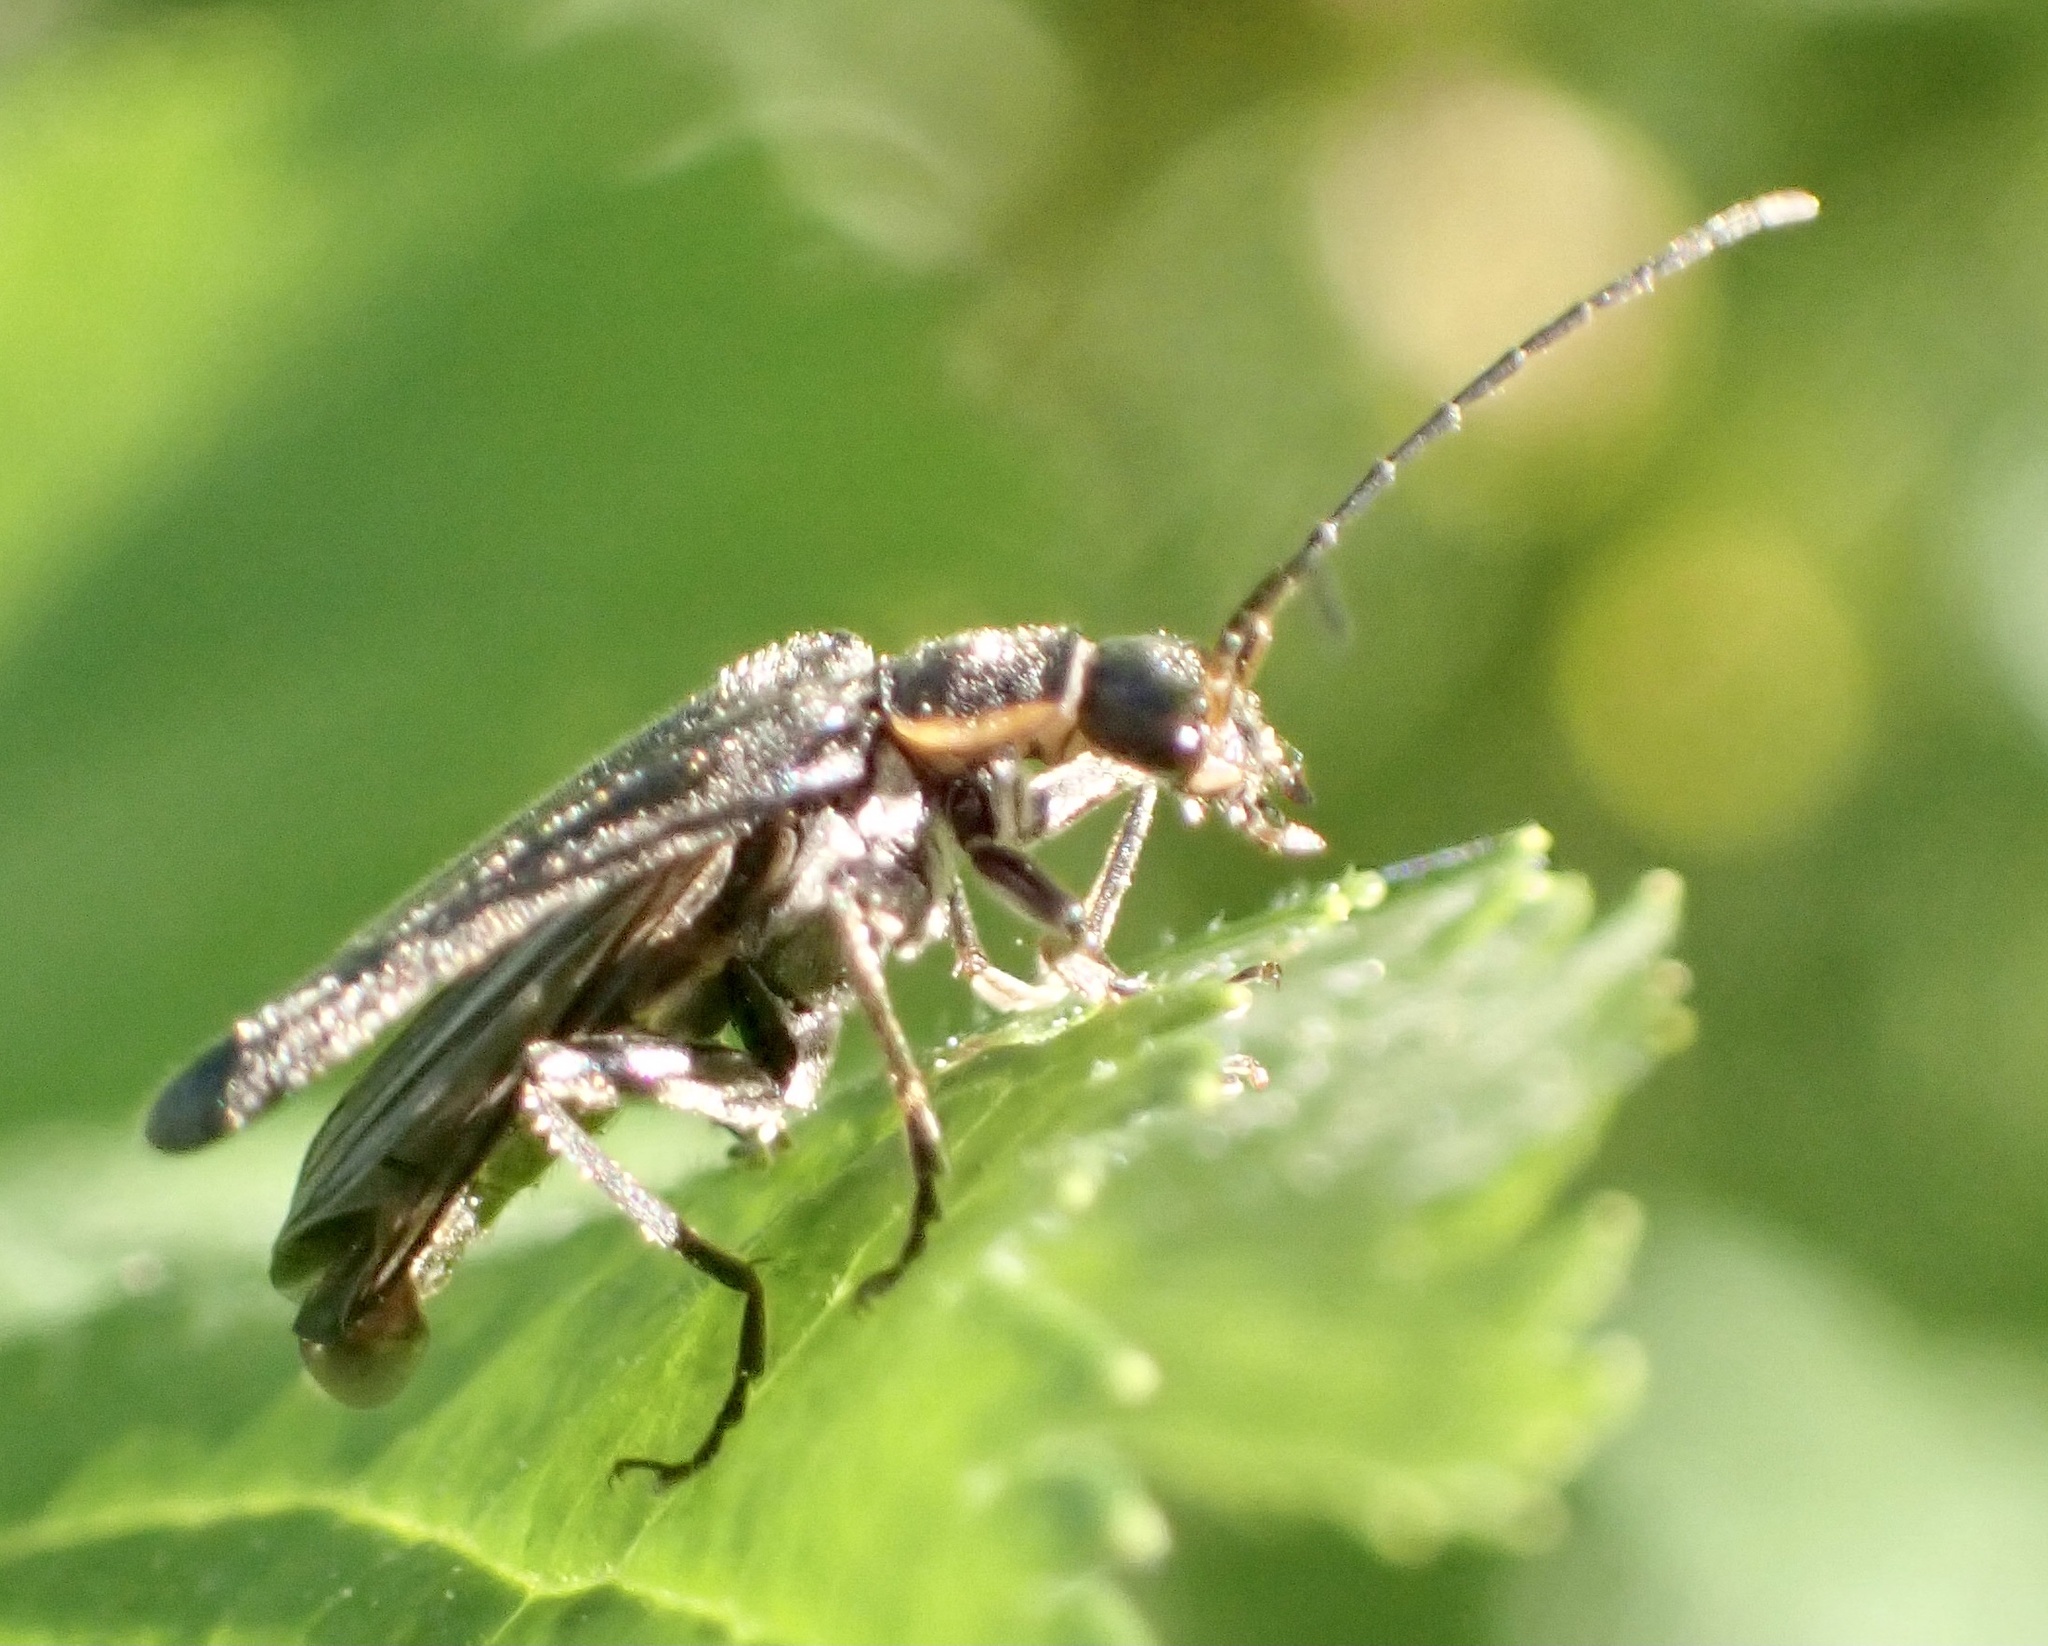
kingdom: Animalia
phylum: Arthropoda
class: Insecta
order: Coleoptera
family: Cantharidae
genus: Cantharis
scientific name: Cantharis obscura
